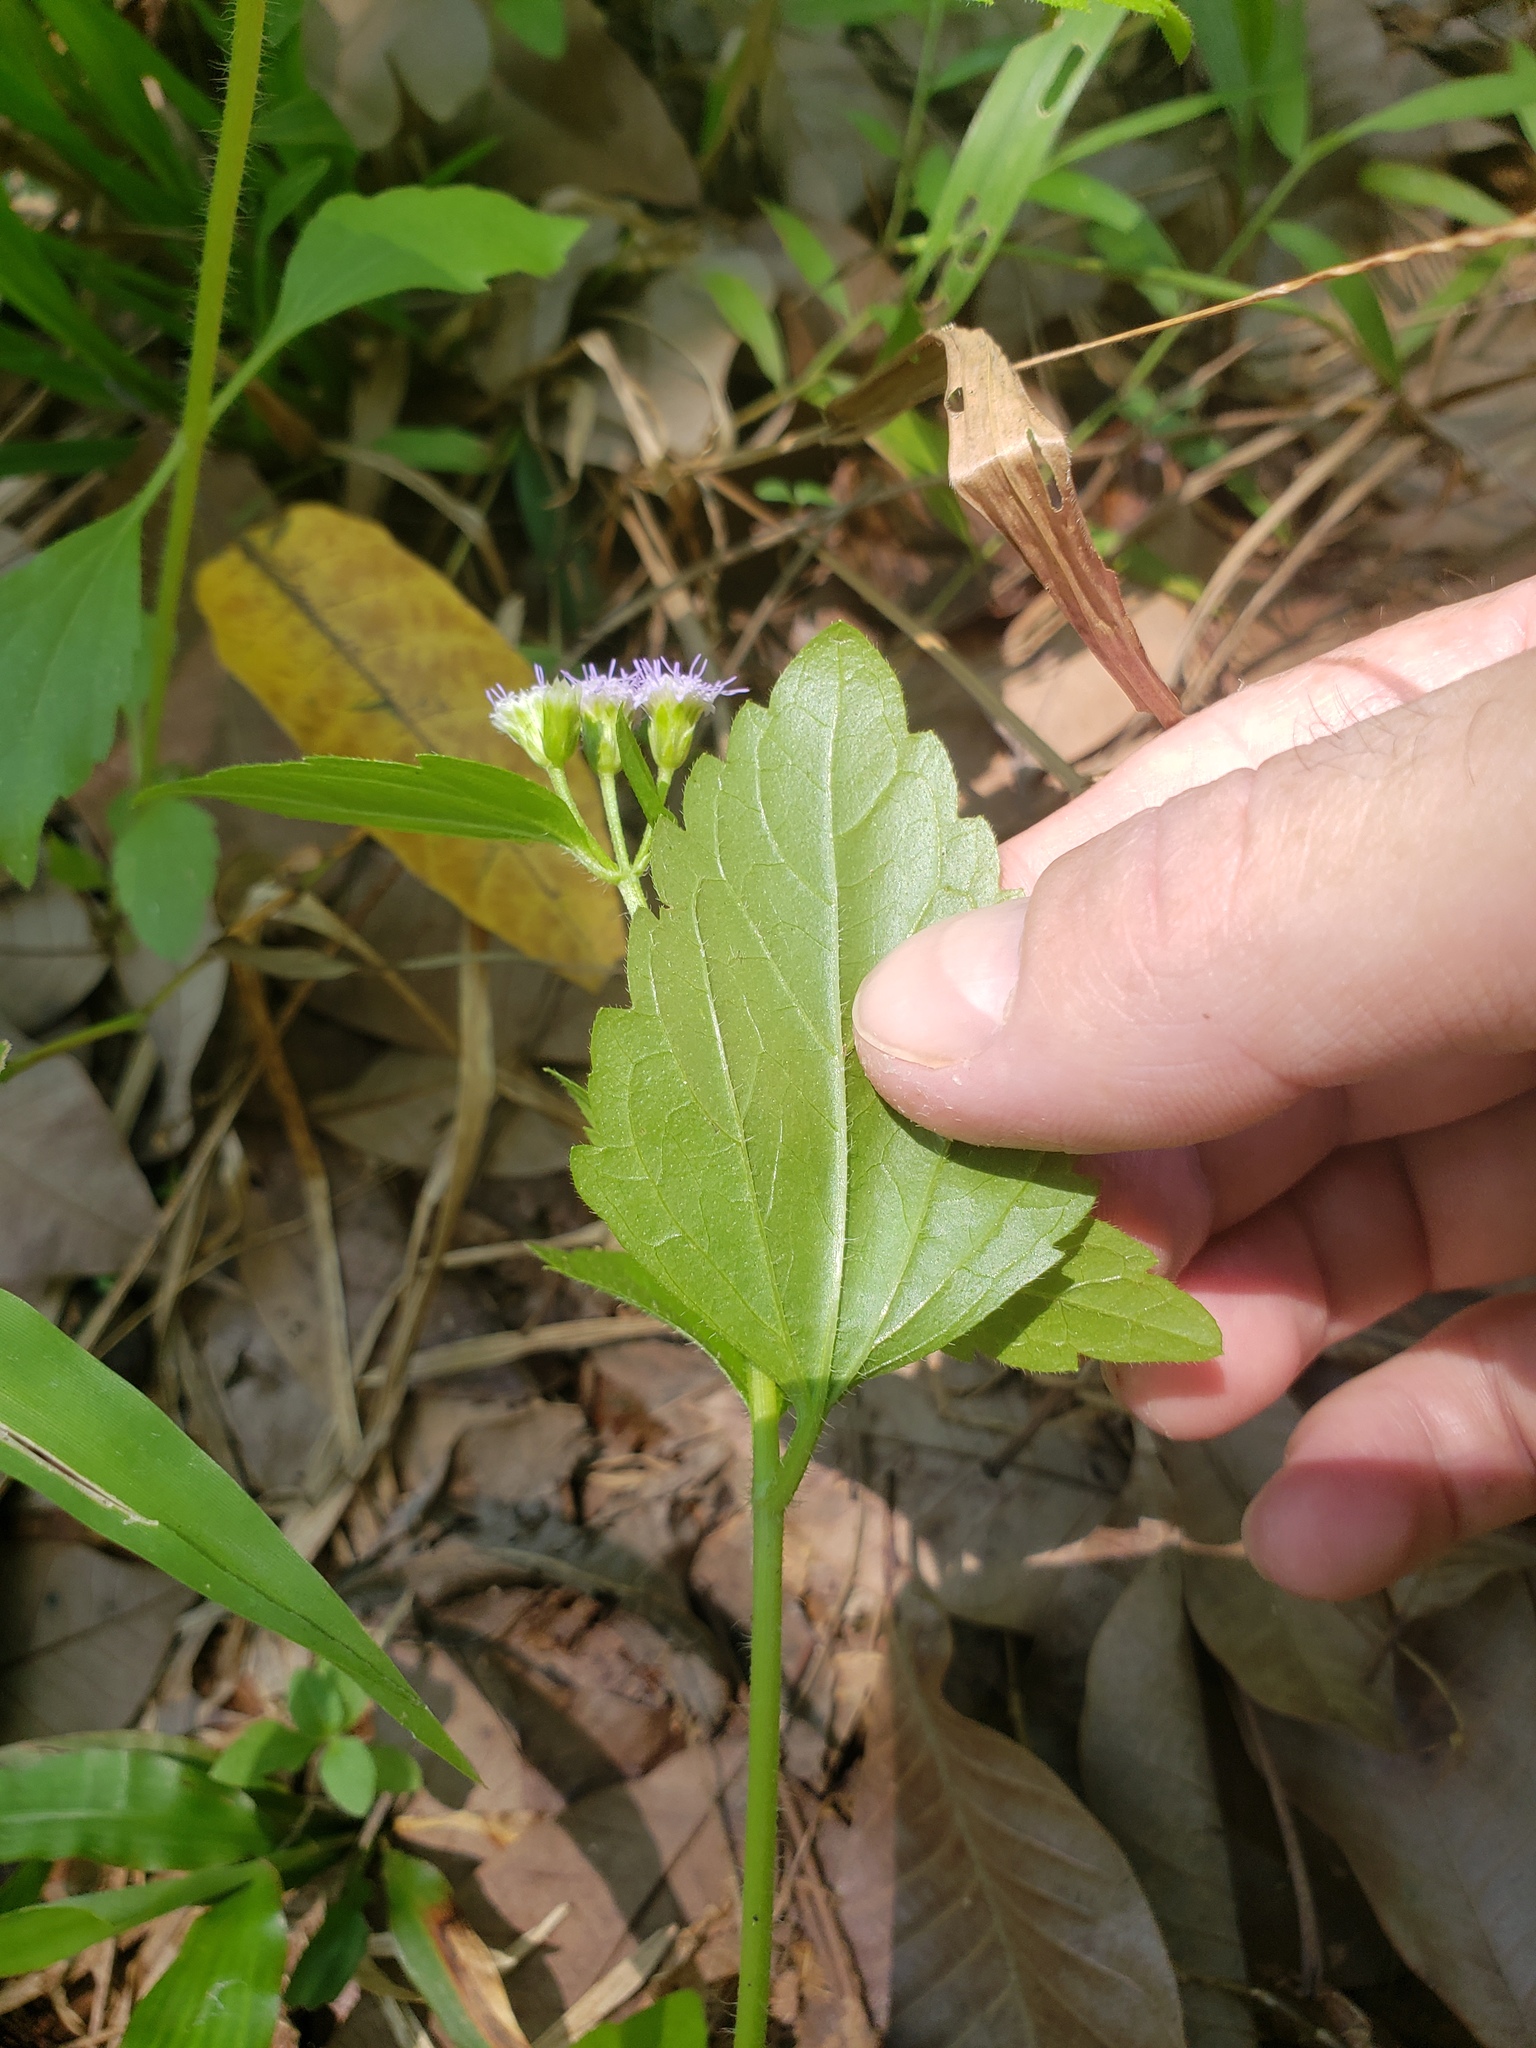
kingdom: Plantae
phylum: Tracheophyta
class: Magnoliopsida
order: Asterales
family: Asteraceae
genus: Praxelis
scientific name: Praxelis clematidea
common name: Praxelis
